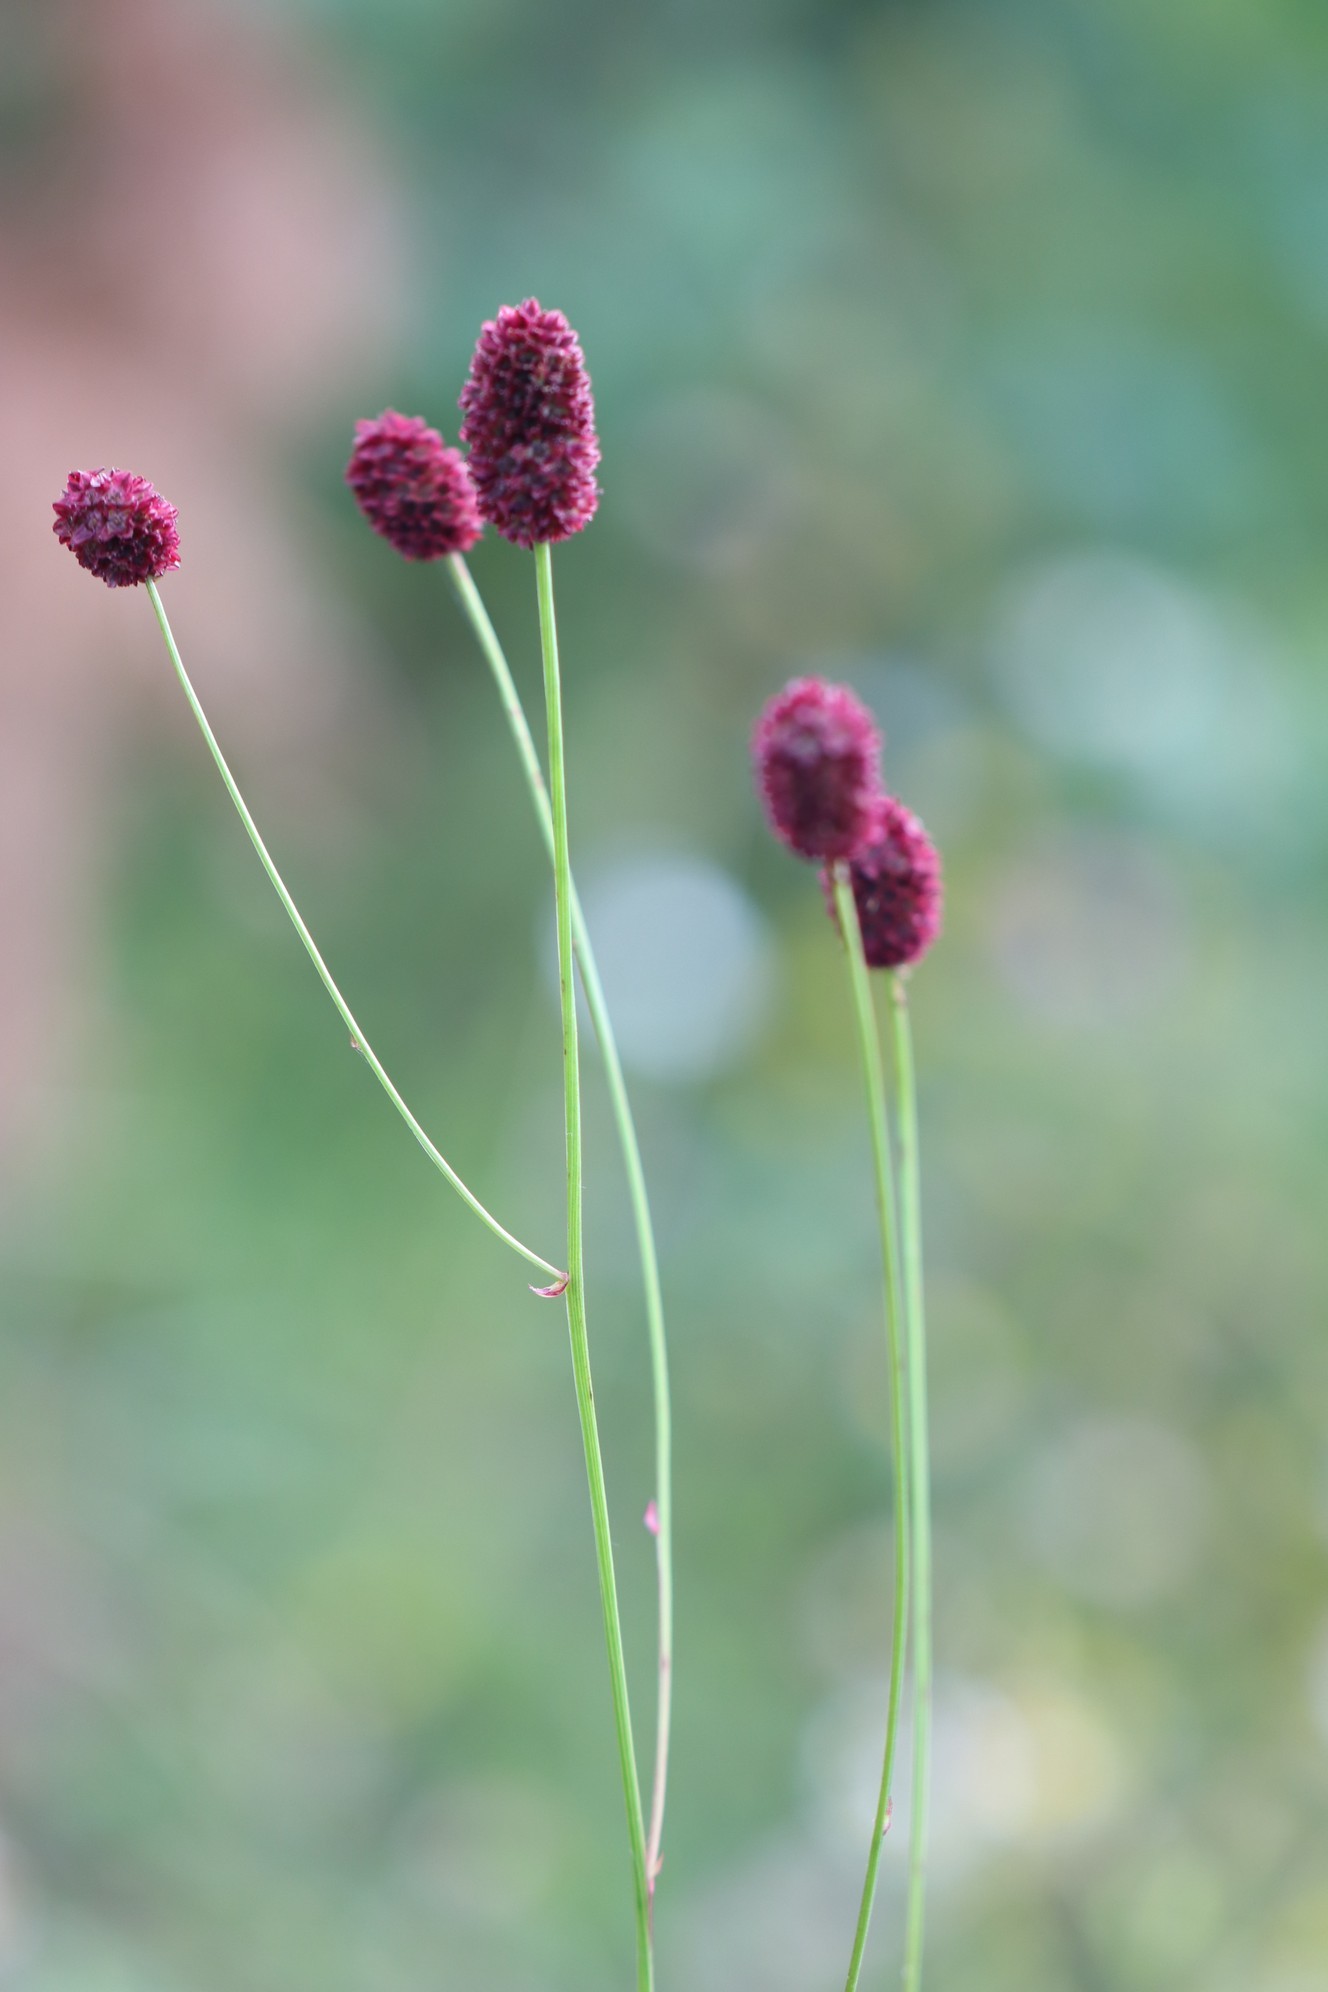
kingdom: Plantae
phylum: Tracheophyta
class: Magnoliopsida
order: Rosales
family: Rosaceae
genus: Sanguisorba
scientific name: Sanguisorba officinalis
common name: Great burnet
